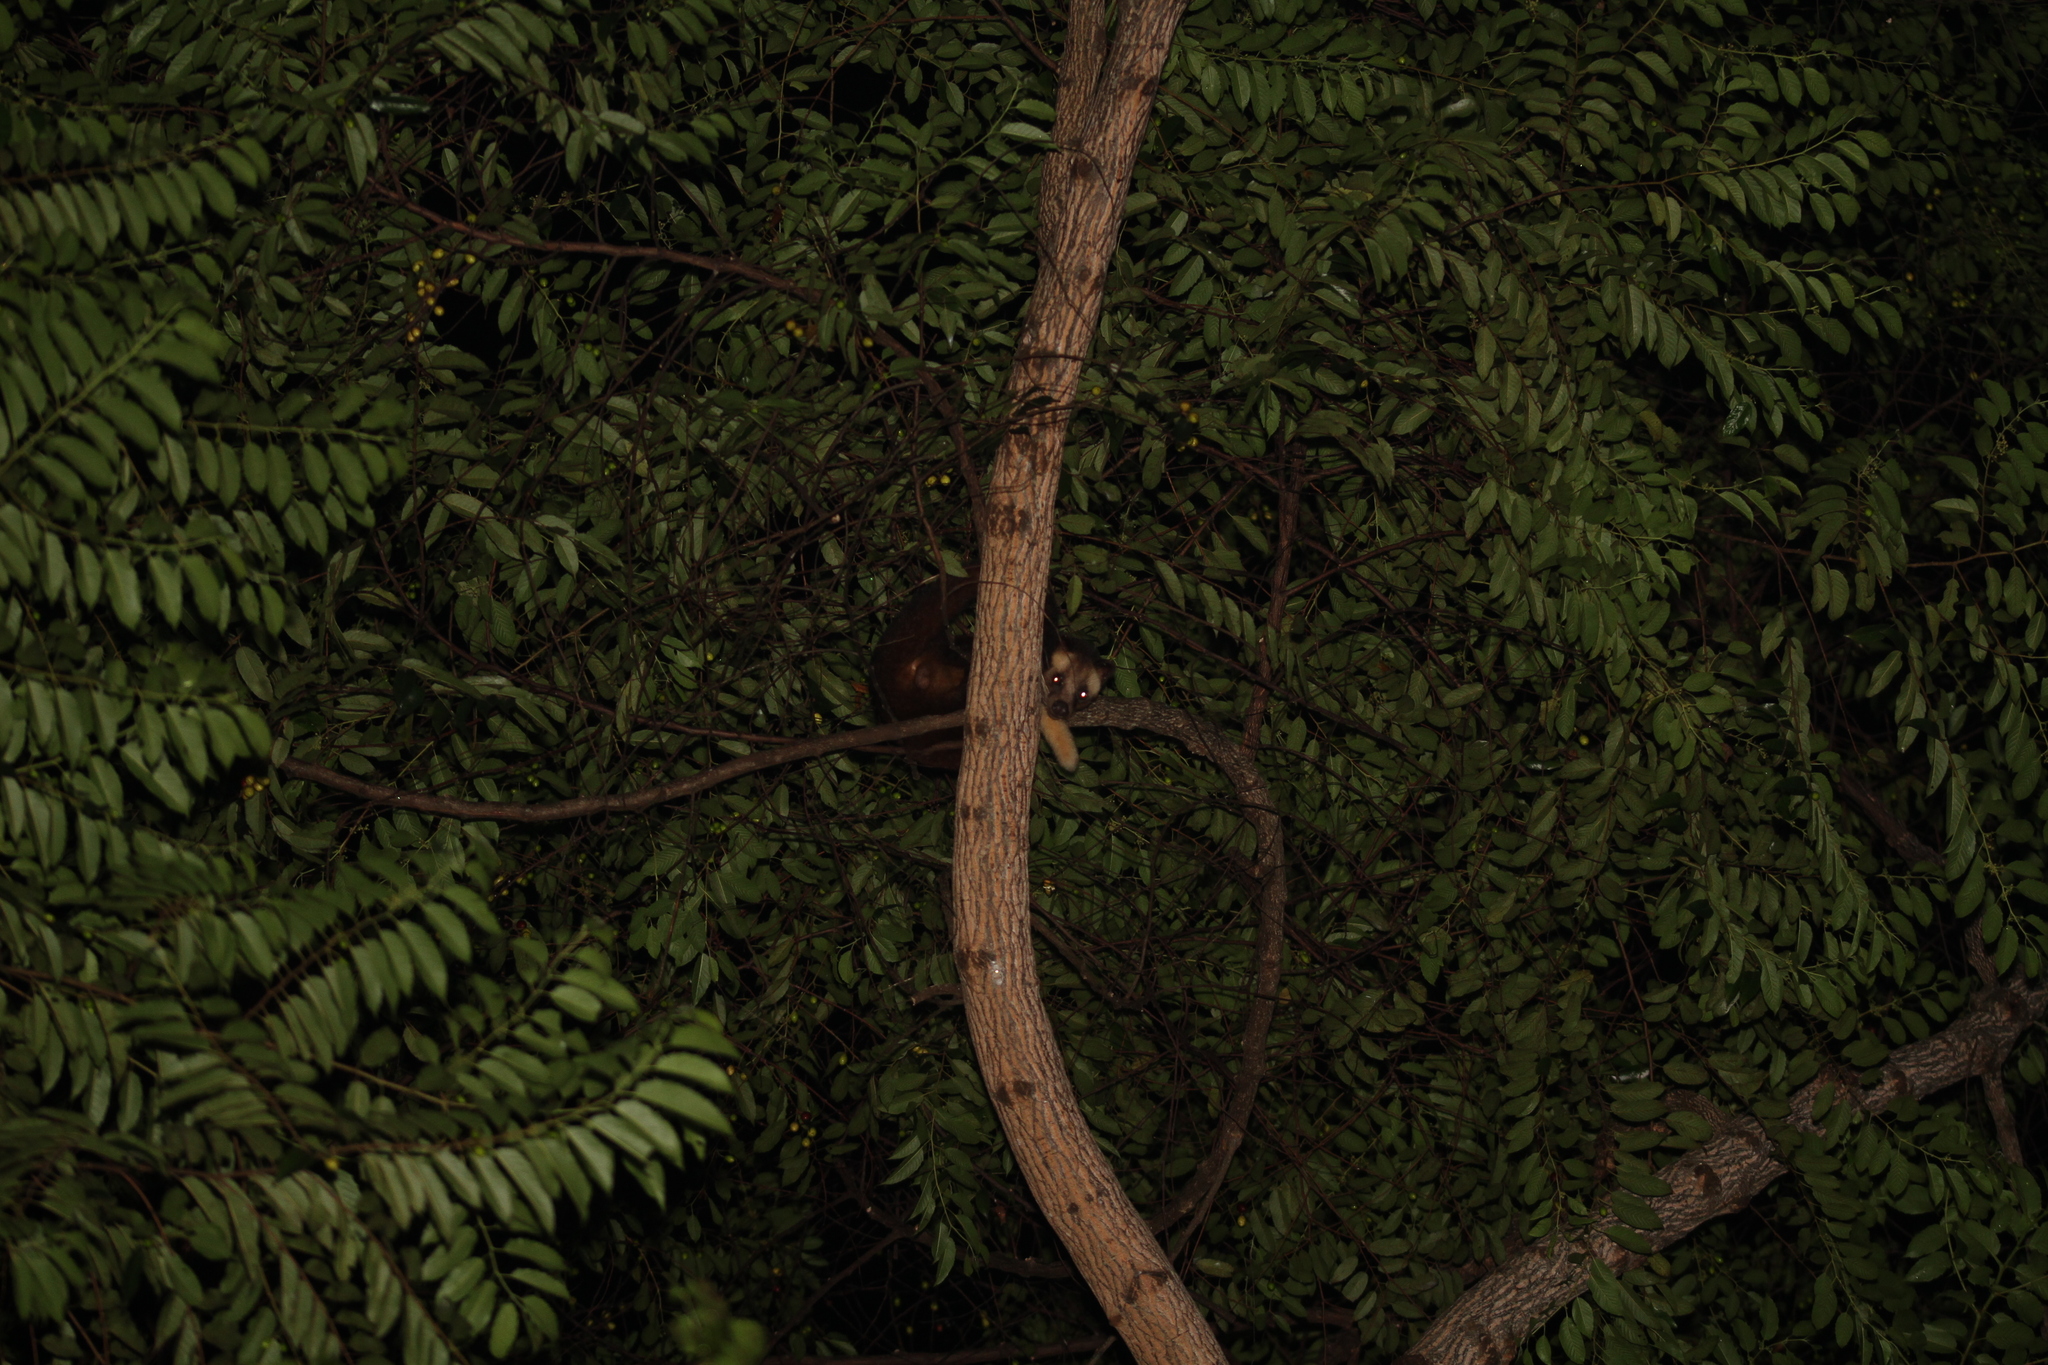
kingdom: Animalia
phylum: Chordata
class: Mammalia
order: Carnivora
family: Viverridae
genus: Paradoxurus
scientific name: Paradoxurus hermaphroditus
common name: Common palm civet
